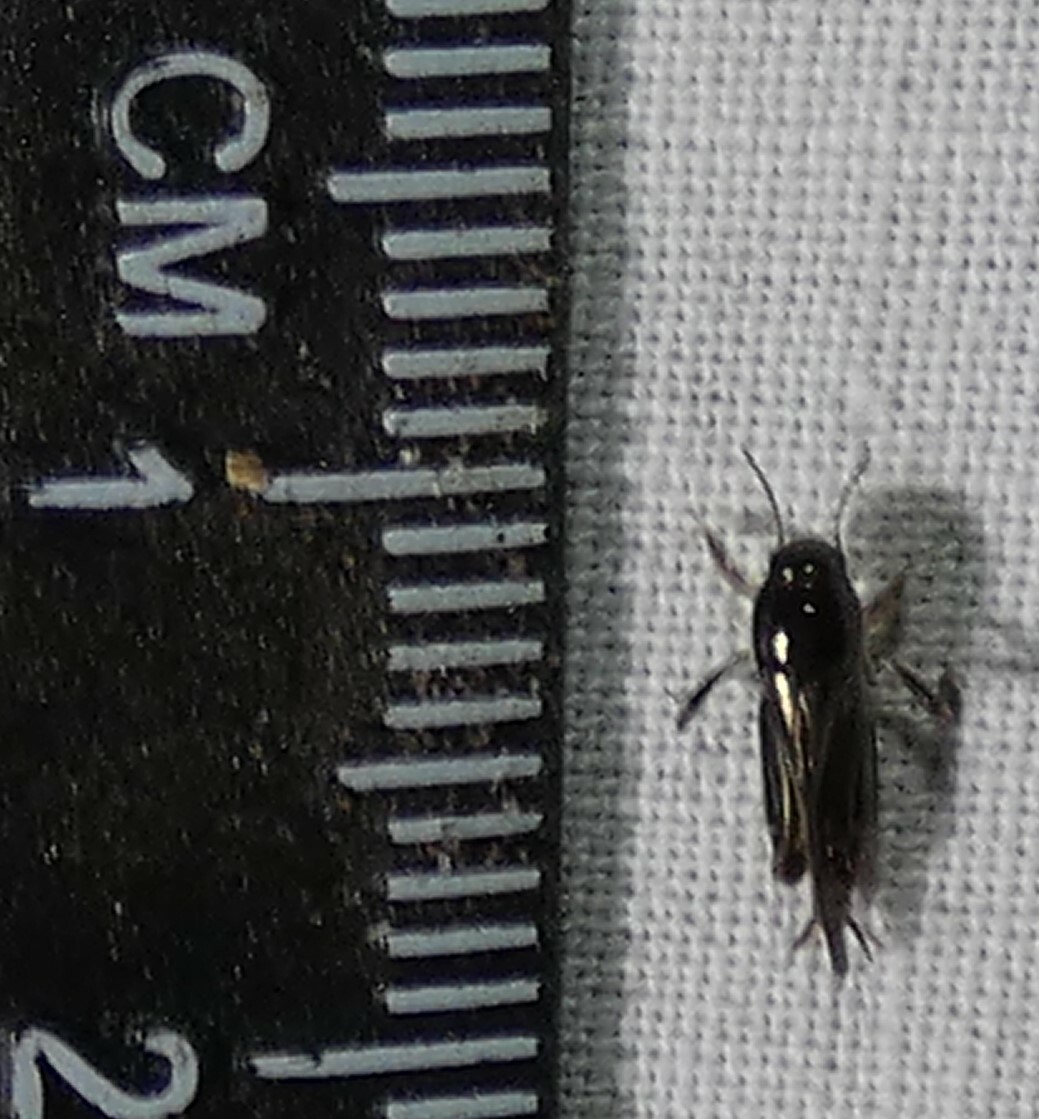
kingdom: Animalia
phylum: Arthropoda
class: Insecta
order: Orthoptera
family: Tridactylidae
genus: Neotridactylus
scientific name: Neotridactylus apicialis
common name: Larger pygmy locust
